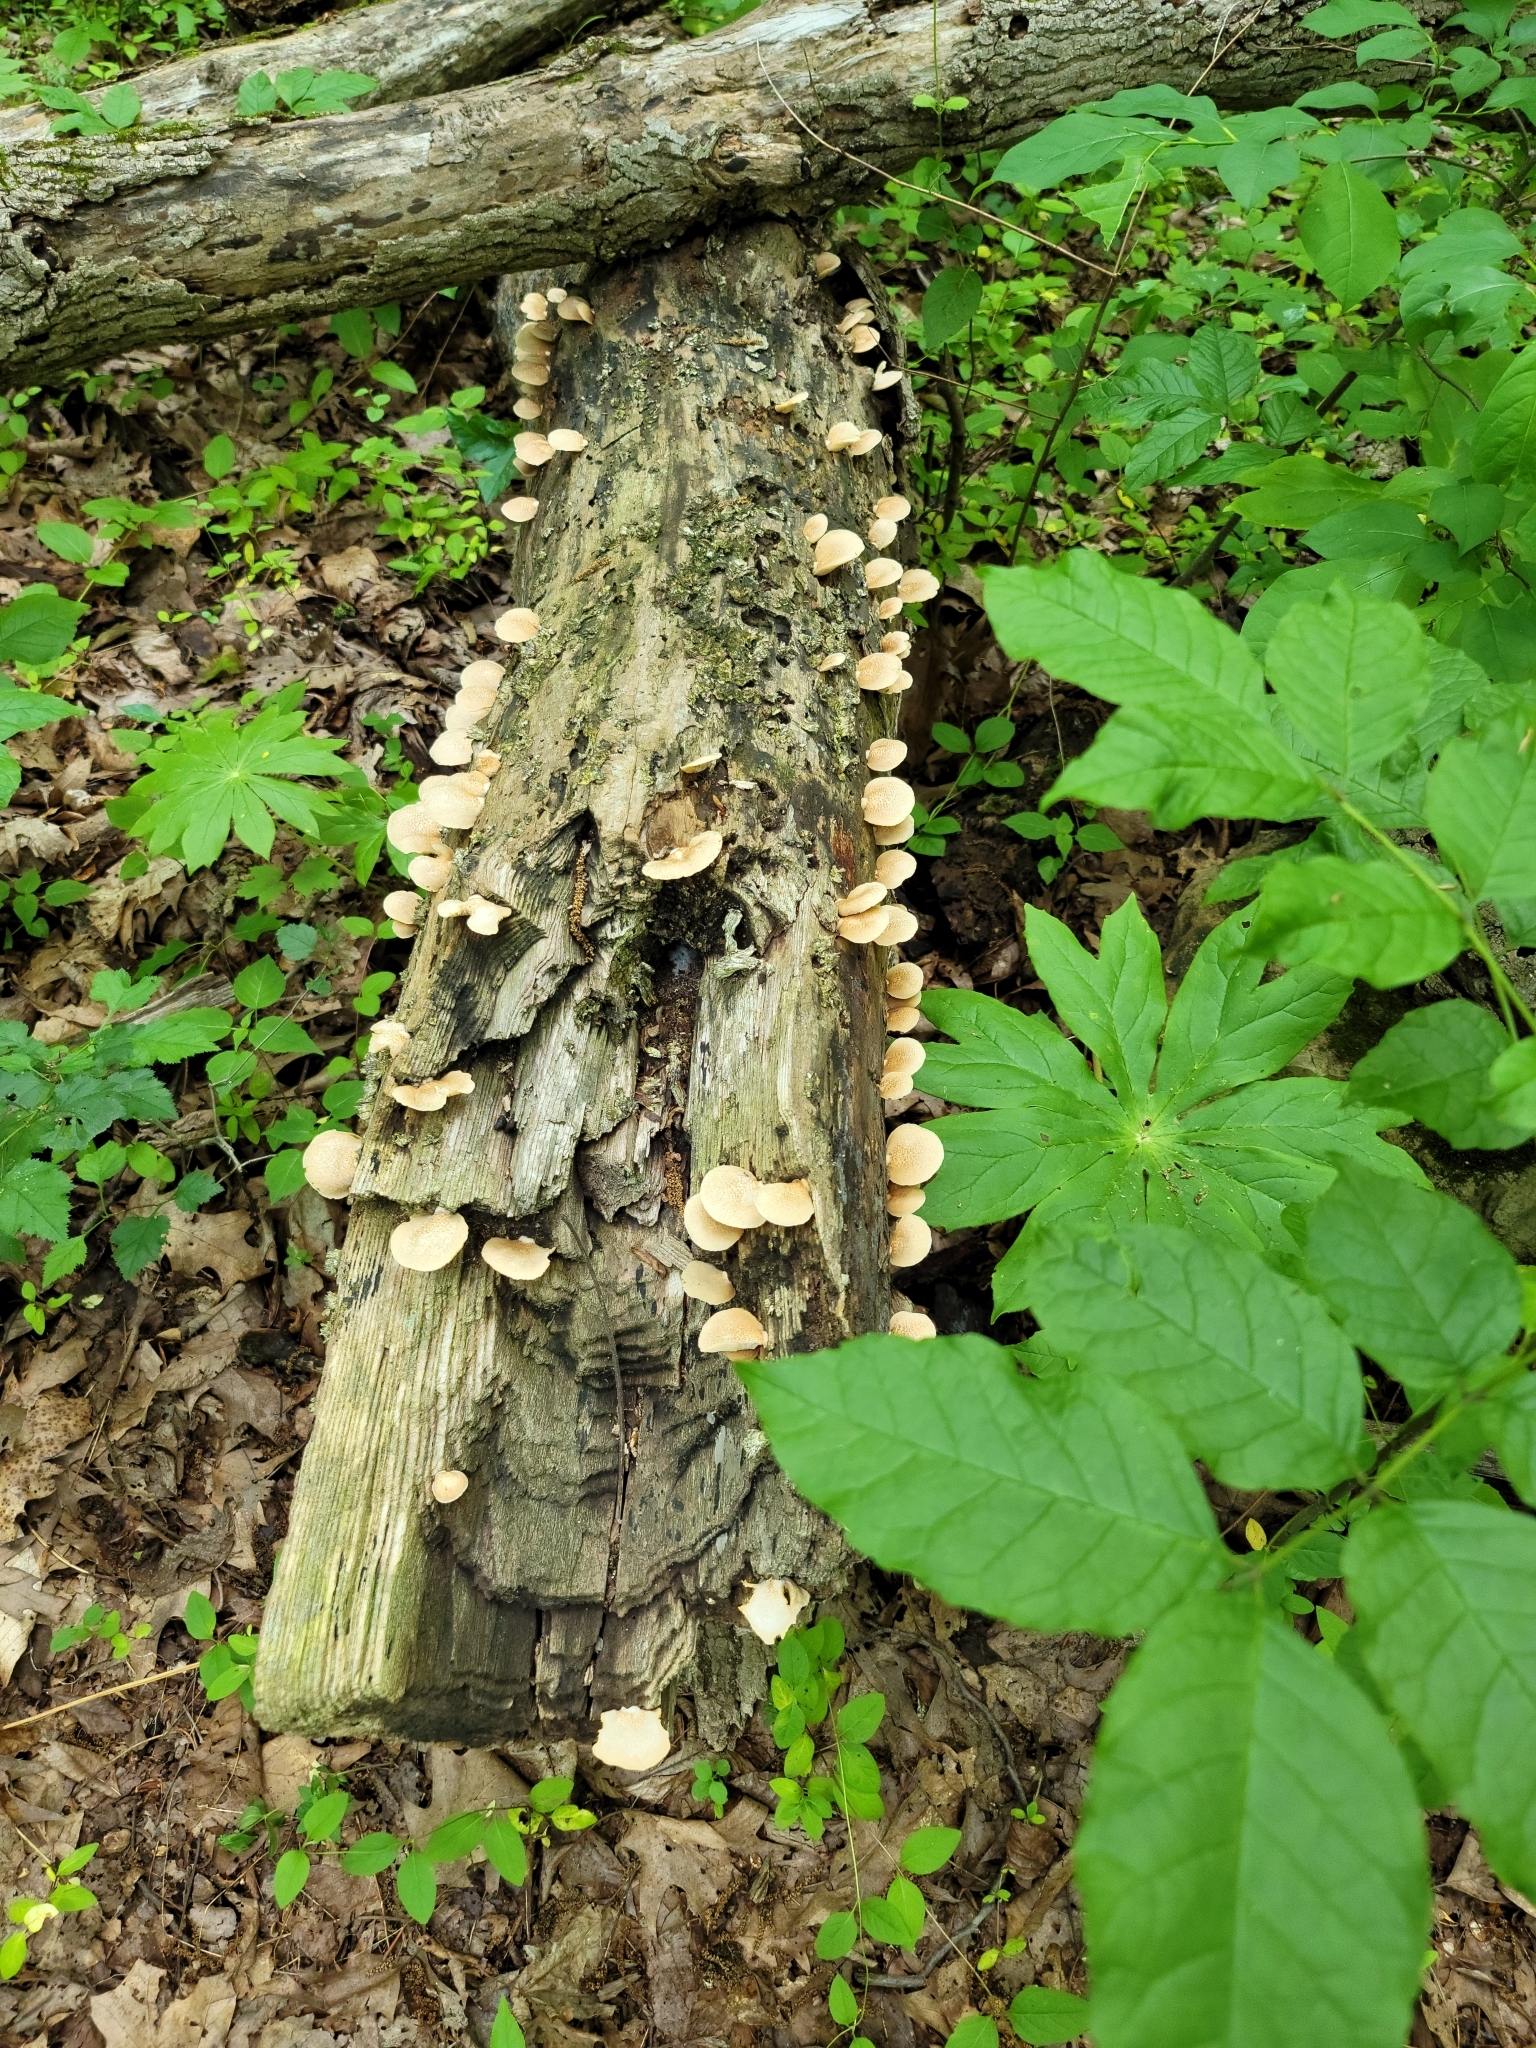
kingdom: Fungi
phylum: Basidiomycota
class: Agaricomycetes
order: Agaricales
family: Crepidotaceae
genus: Crepidotus
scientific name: Crepidotus applanatus
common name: Flat crep
